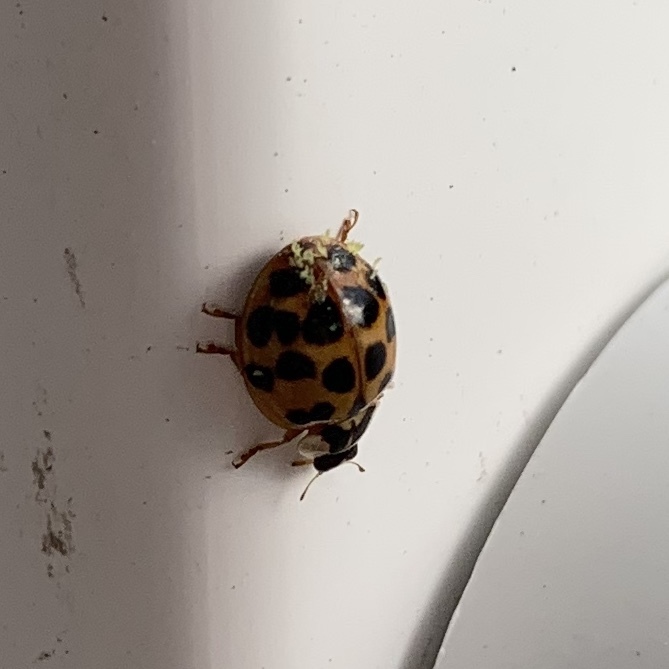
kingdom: Animalia
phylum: Arthropoda
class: Insecta
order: Coleoptera
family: Coccinellidae
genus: Harmonia
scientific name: Harmonia axyridis
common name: Harlequin ladybird
